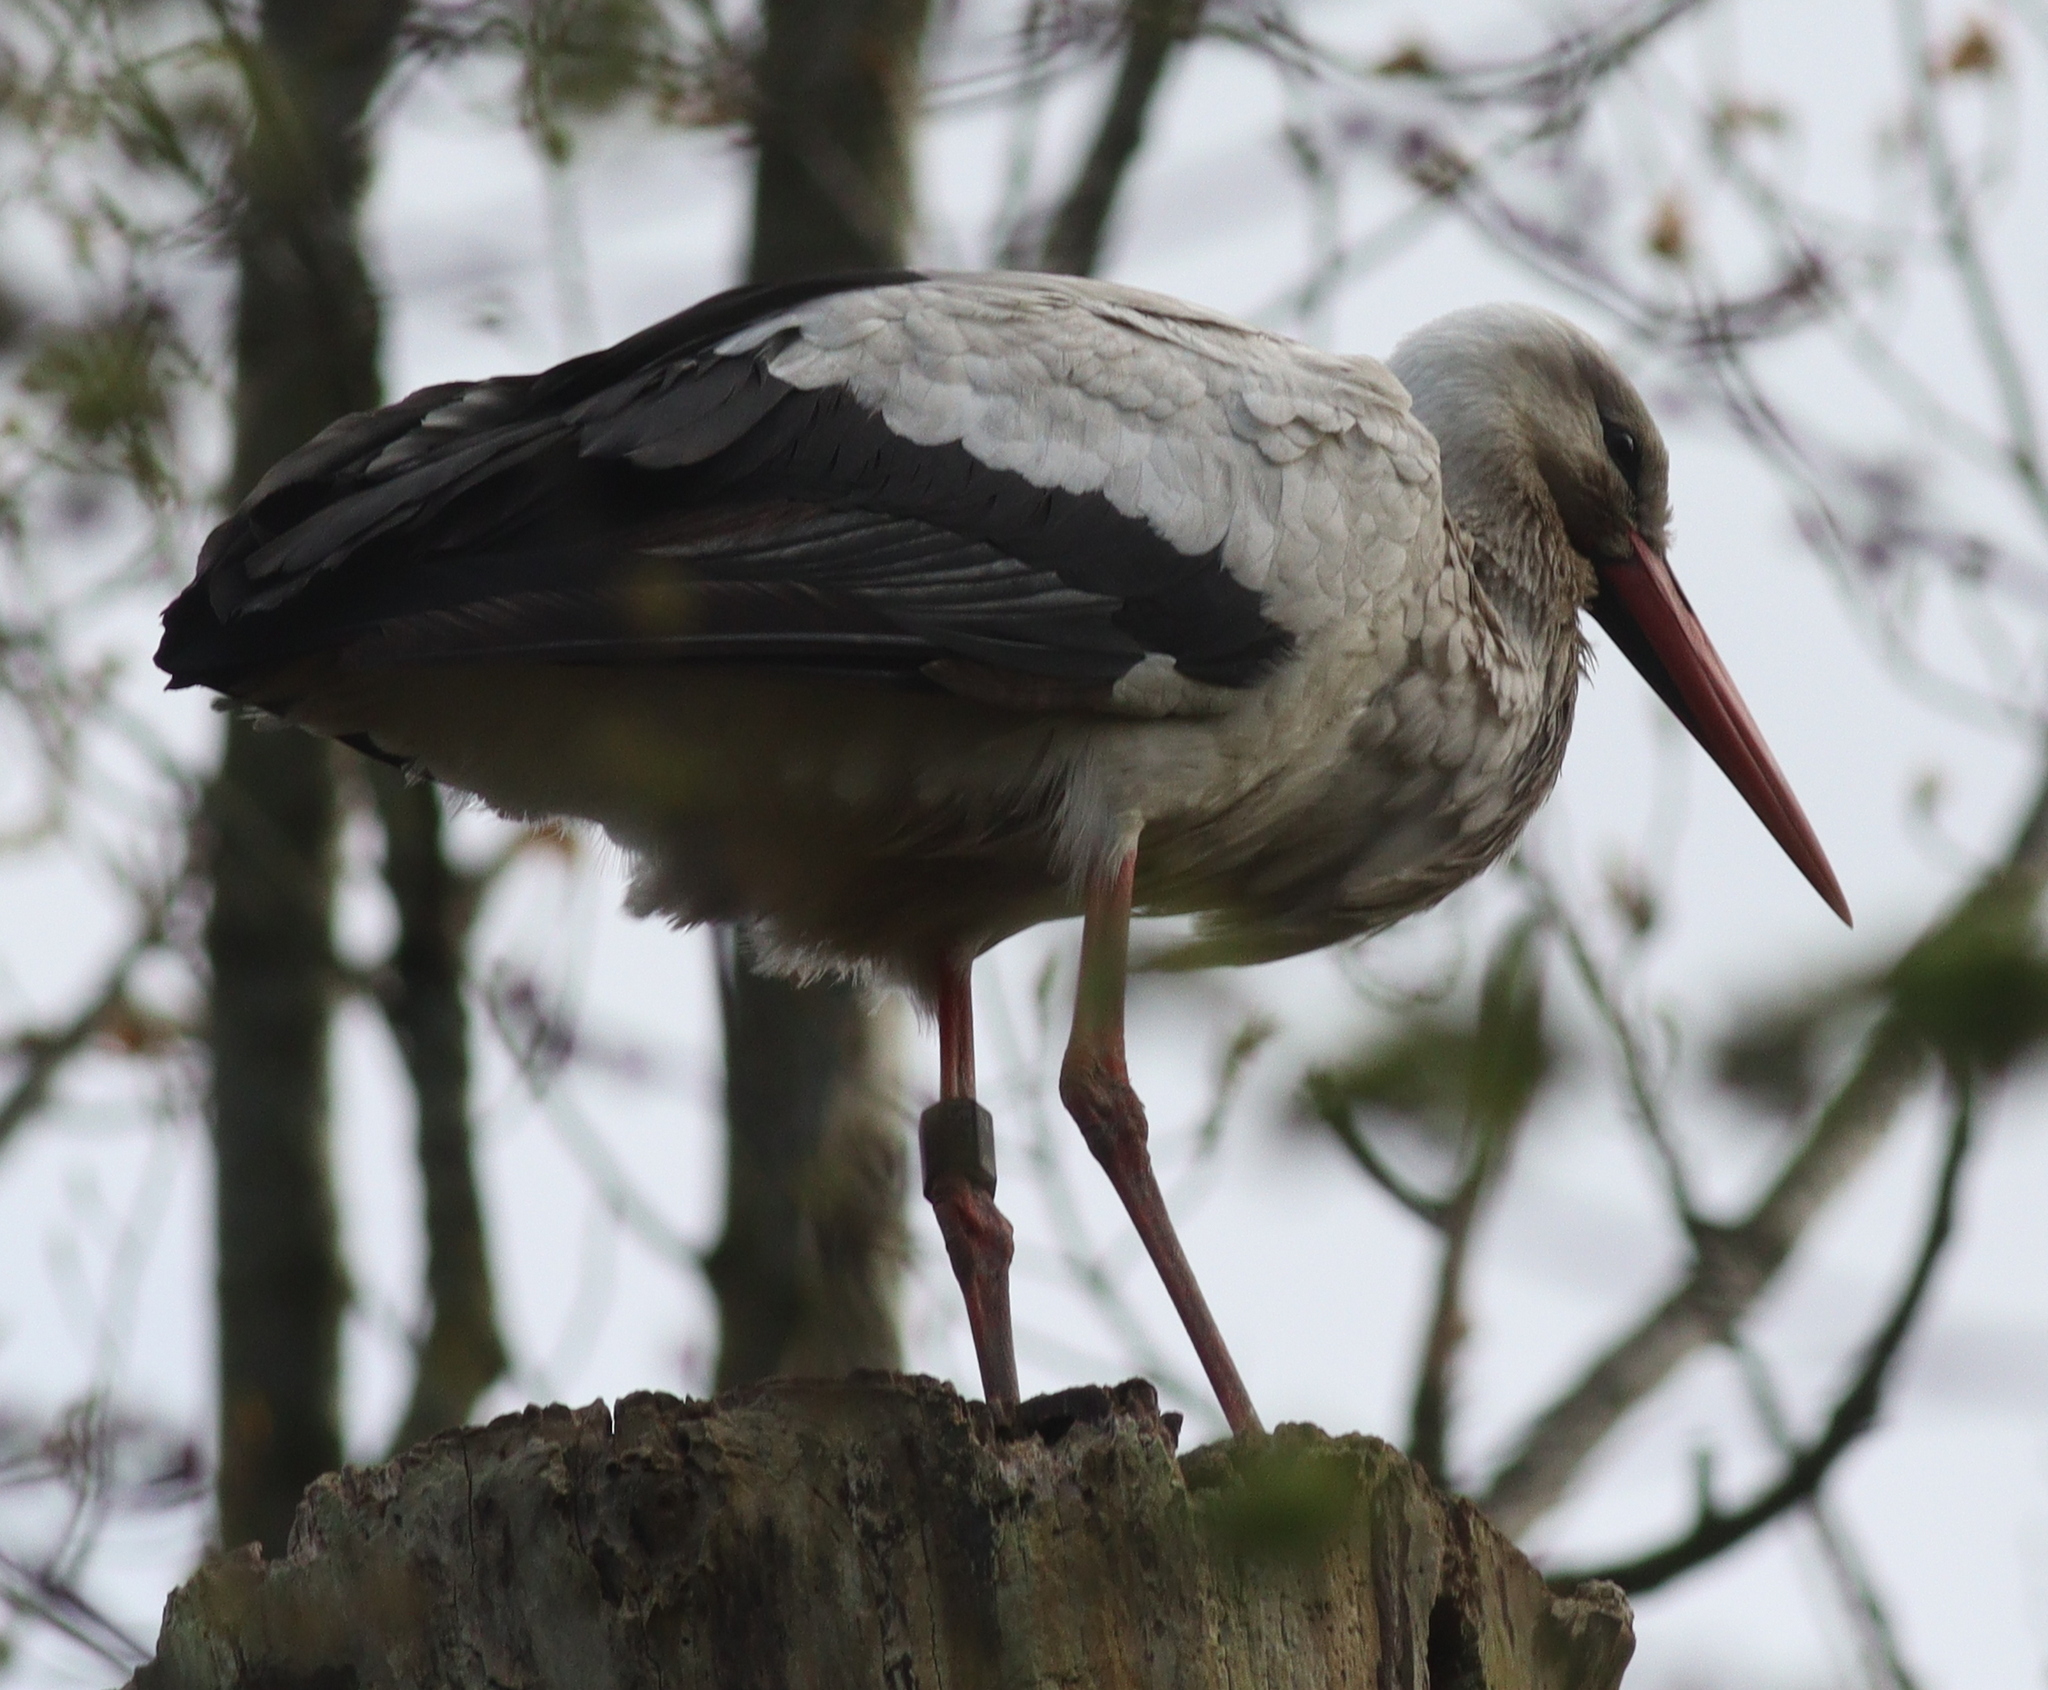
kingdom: Animalia
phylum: Chordata
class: Aves
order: Ciconiiformes
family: Ciconiidae
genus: Ciconia
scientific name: Ciconia ciconia
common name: White stork
